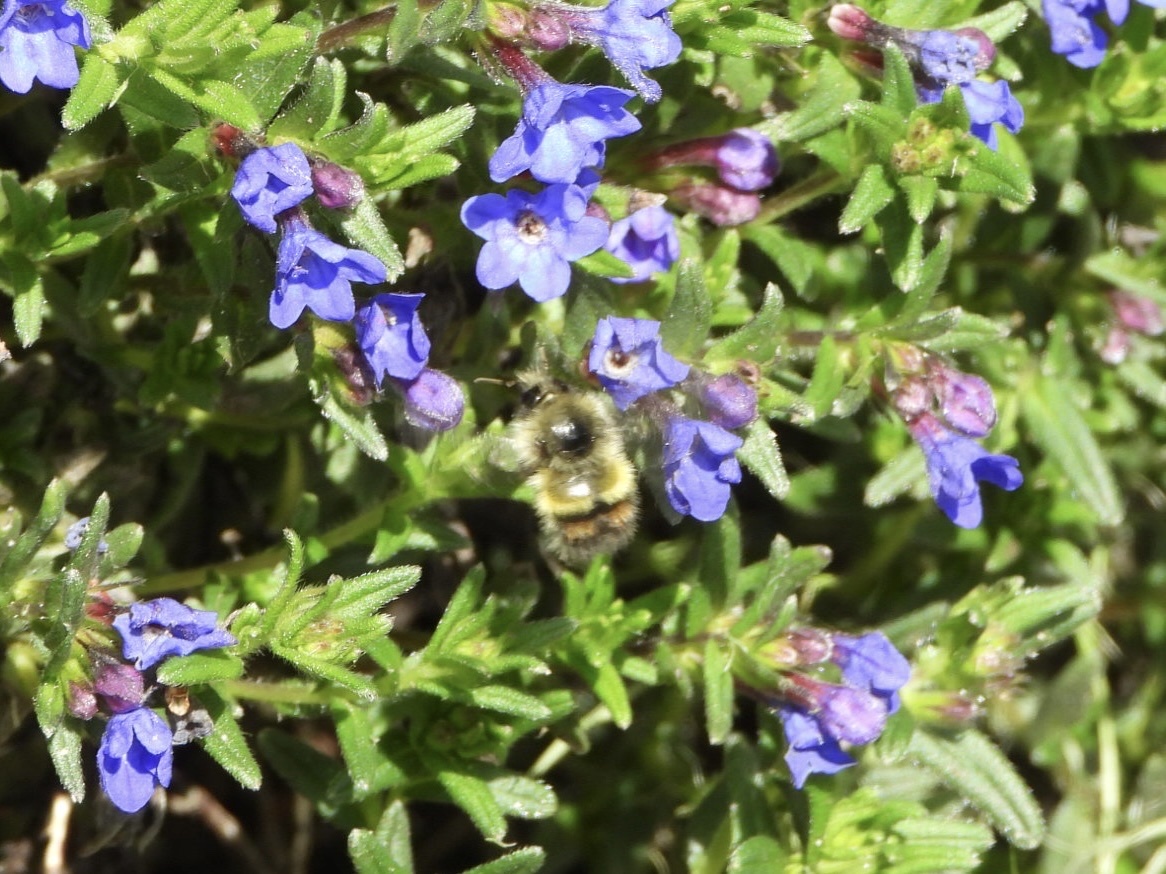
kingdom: Animalia
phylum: Arthropoda
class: Insecta
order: Hymenoptera
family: Apidae
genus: Bombus
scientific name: Bombus flavifrons
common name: Yellow head bumble bee
